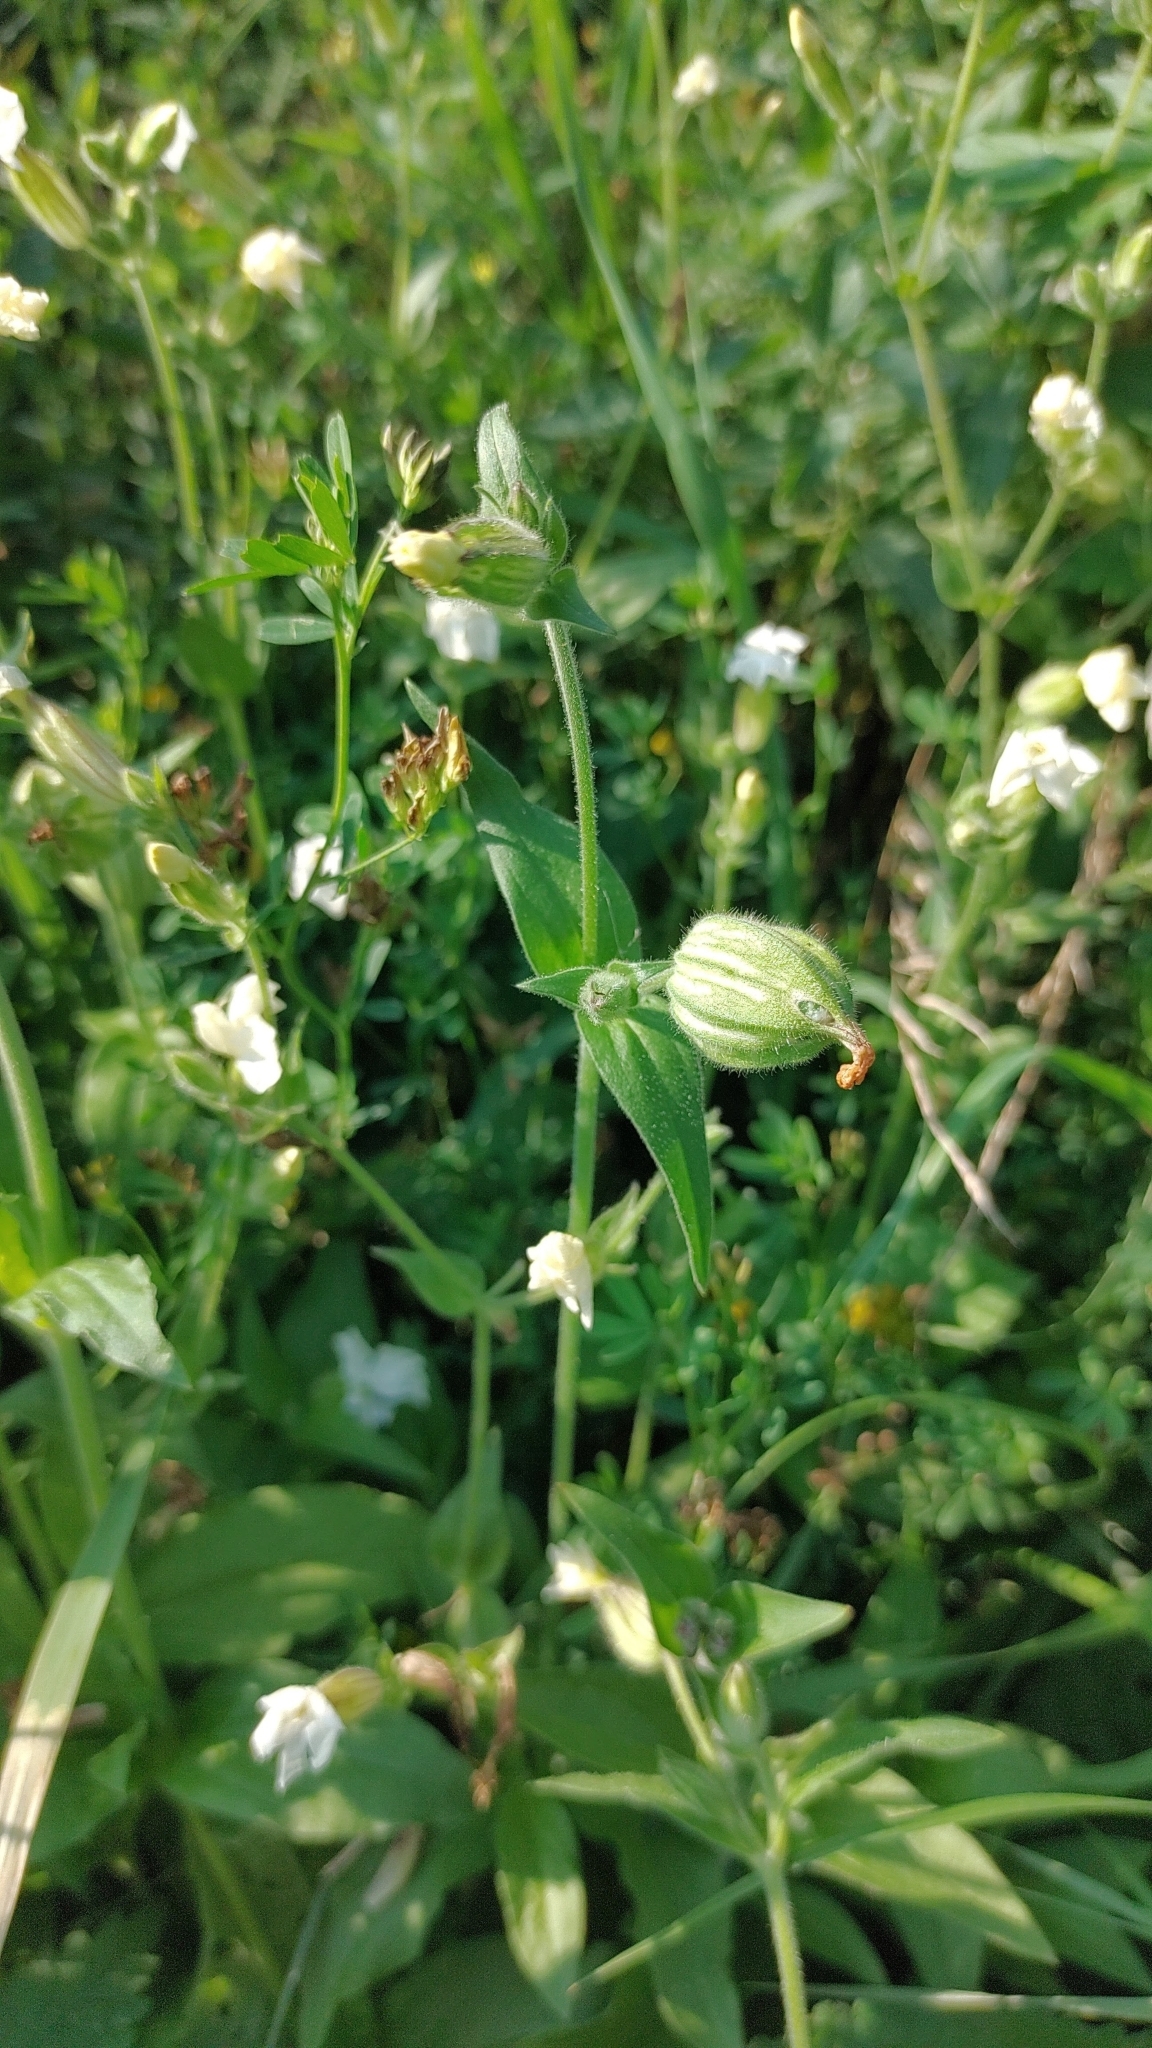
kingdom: Plantae
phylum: Tracheophyta
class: Magnoliopsida
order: Caryophyllales
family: Caryophyllaceae
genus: Silene
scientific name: Silene latifolia
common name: White campion
